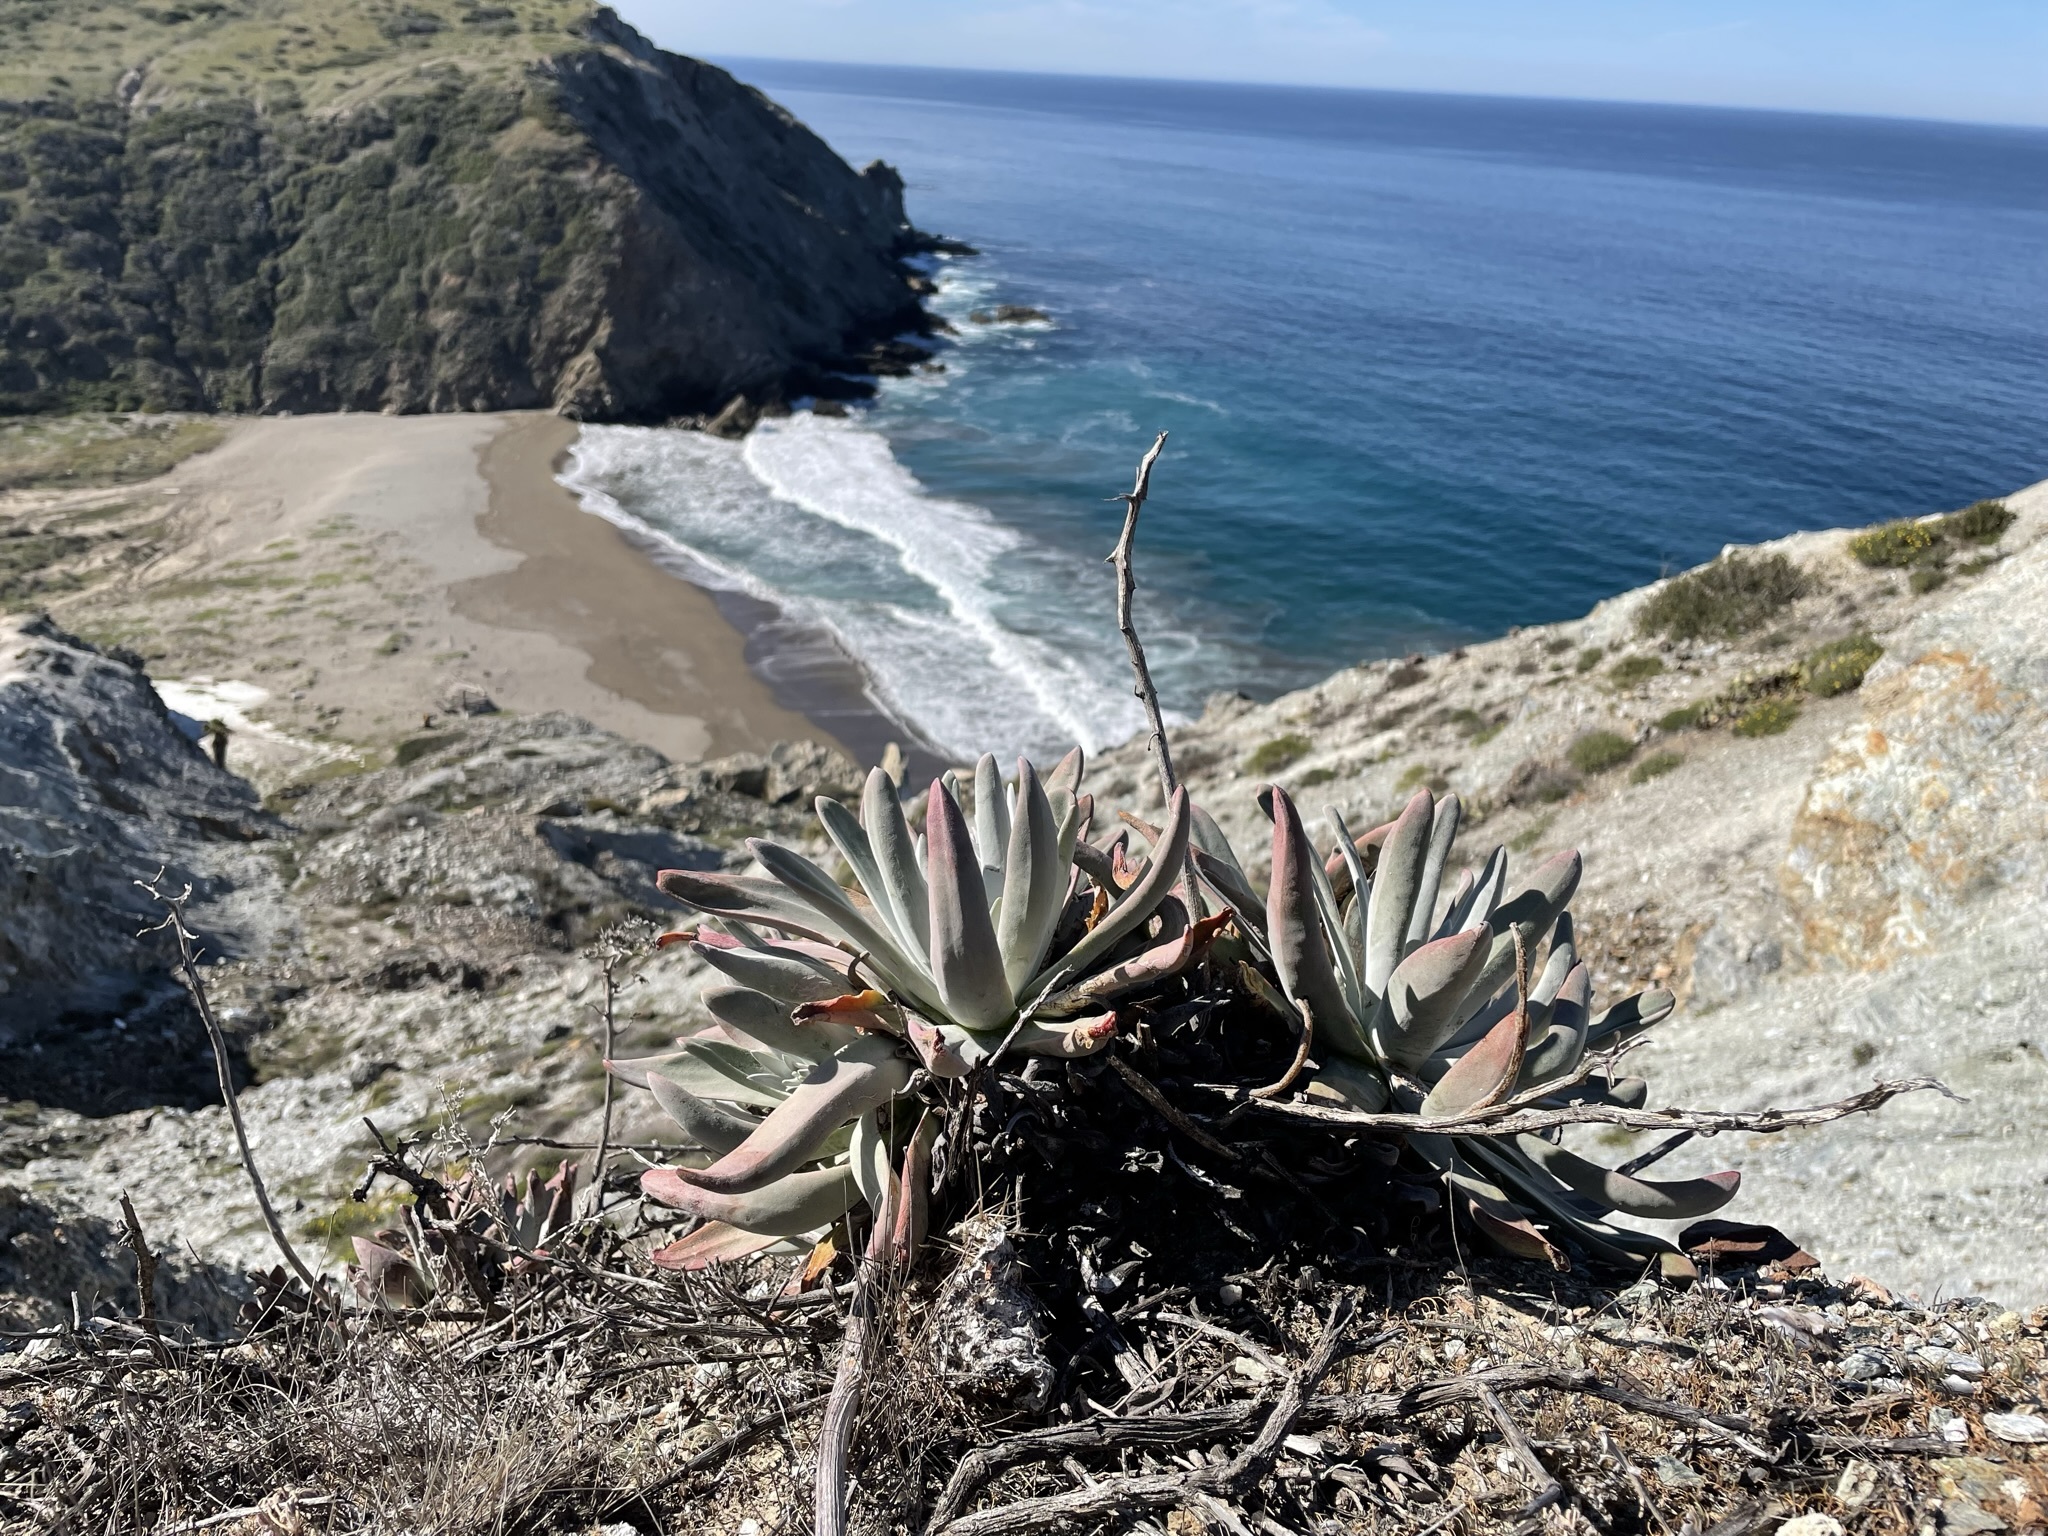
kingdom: Plantae
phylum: Tracheophyta
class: Magnoliopsida
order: Saxifragales
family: Crassulaceae
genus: Dudleya
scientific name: Dudleya virens
